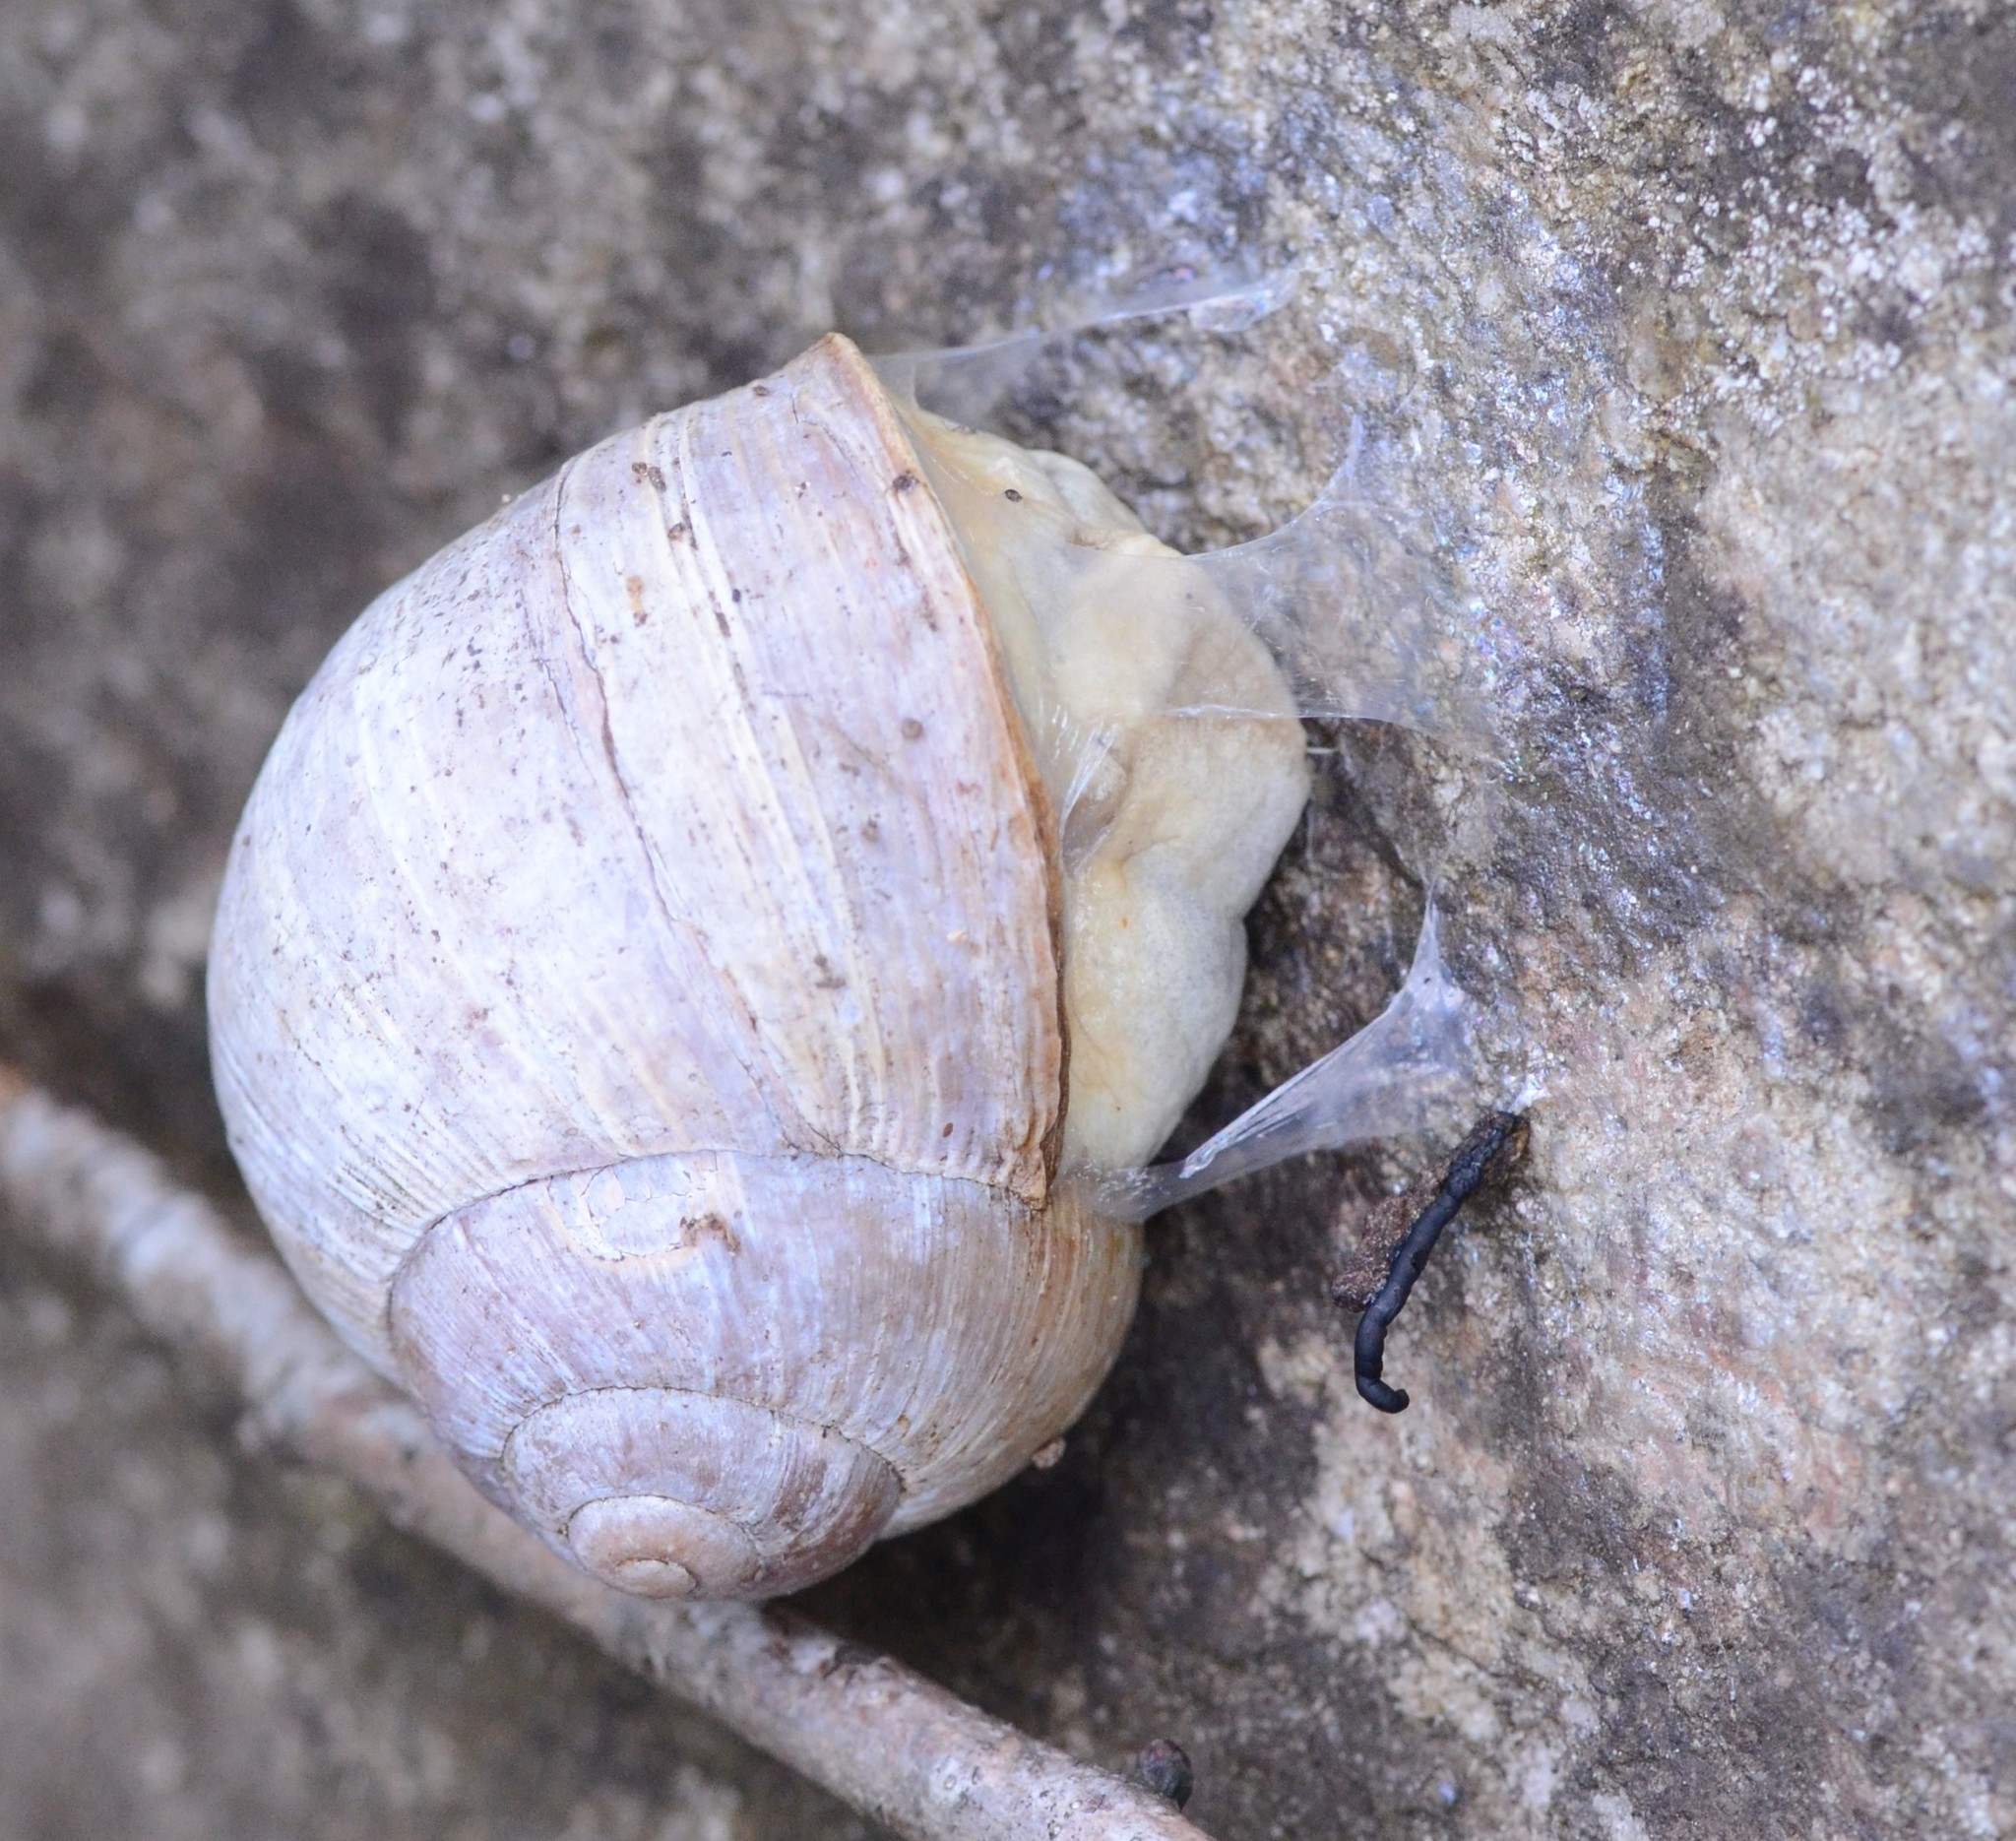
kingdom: Animalia
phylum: Mollusca
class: Gastropoda
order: Stylommatophora
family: Helicidae
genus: Helix
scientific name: Helix pomatia
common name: Roman snail
